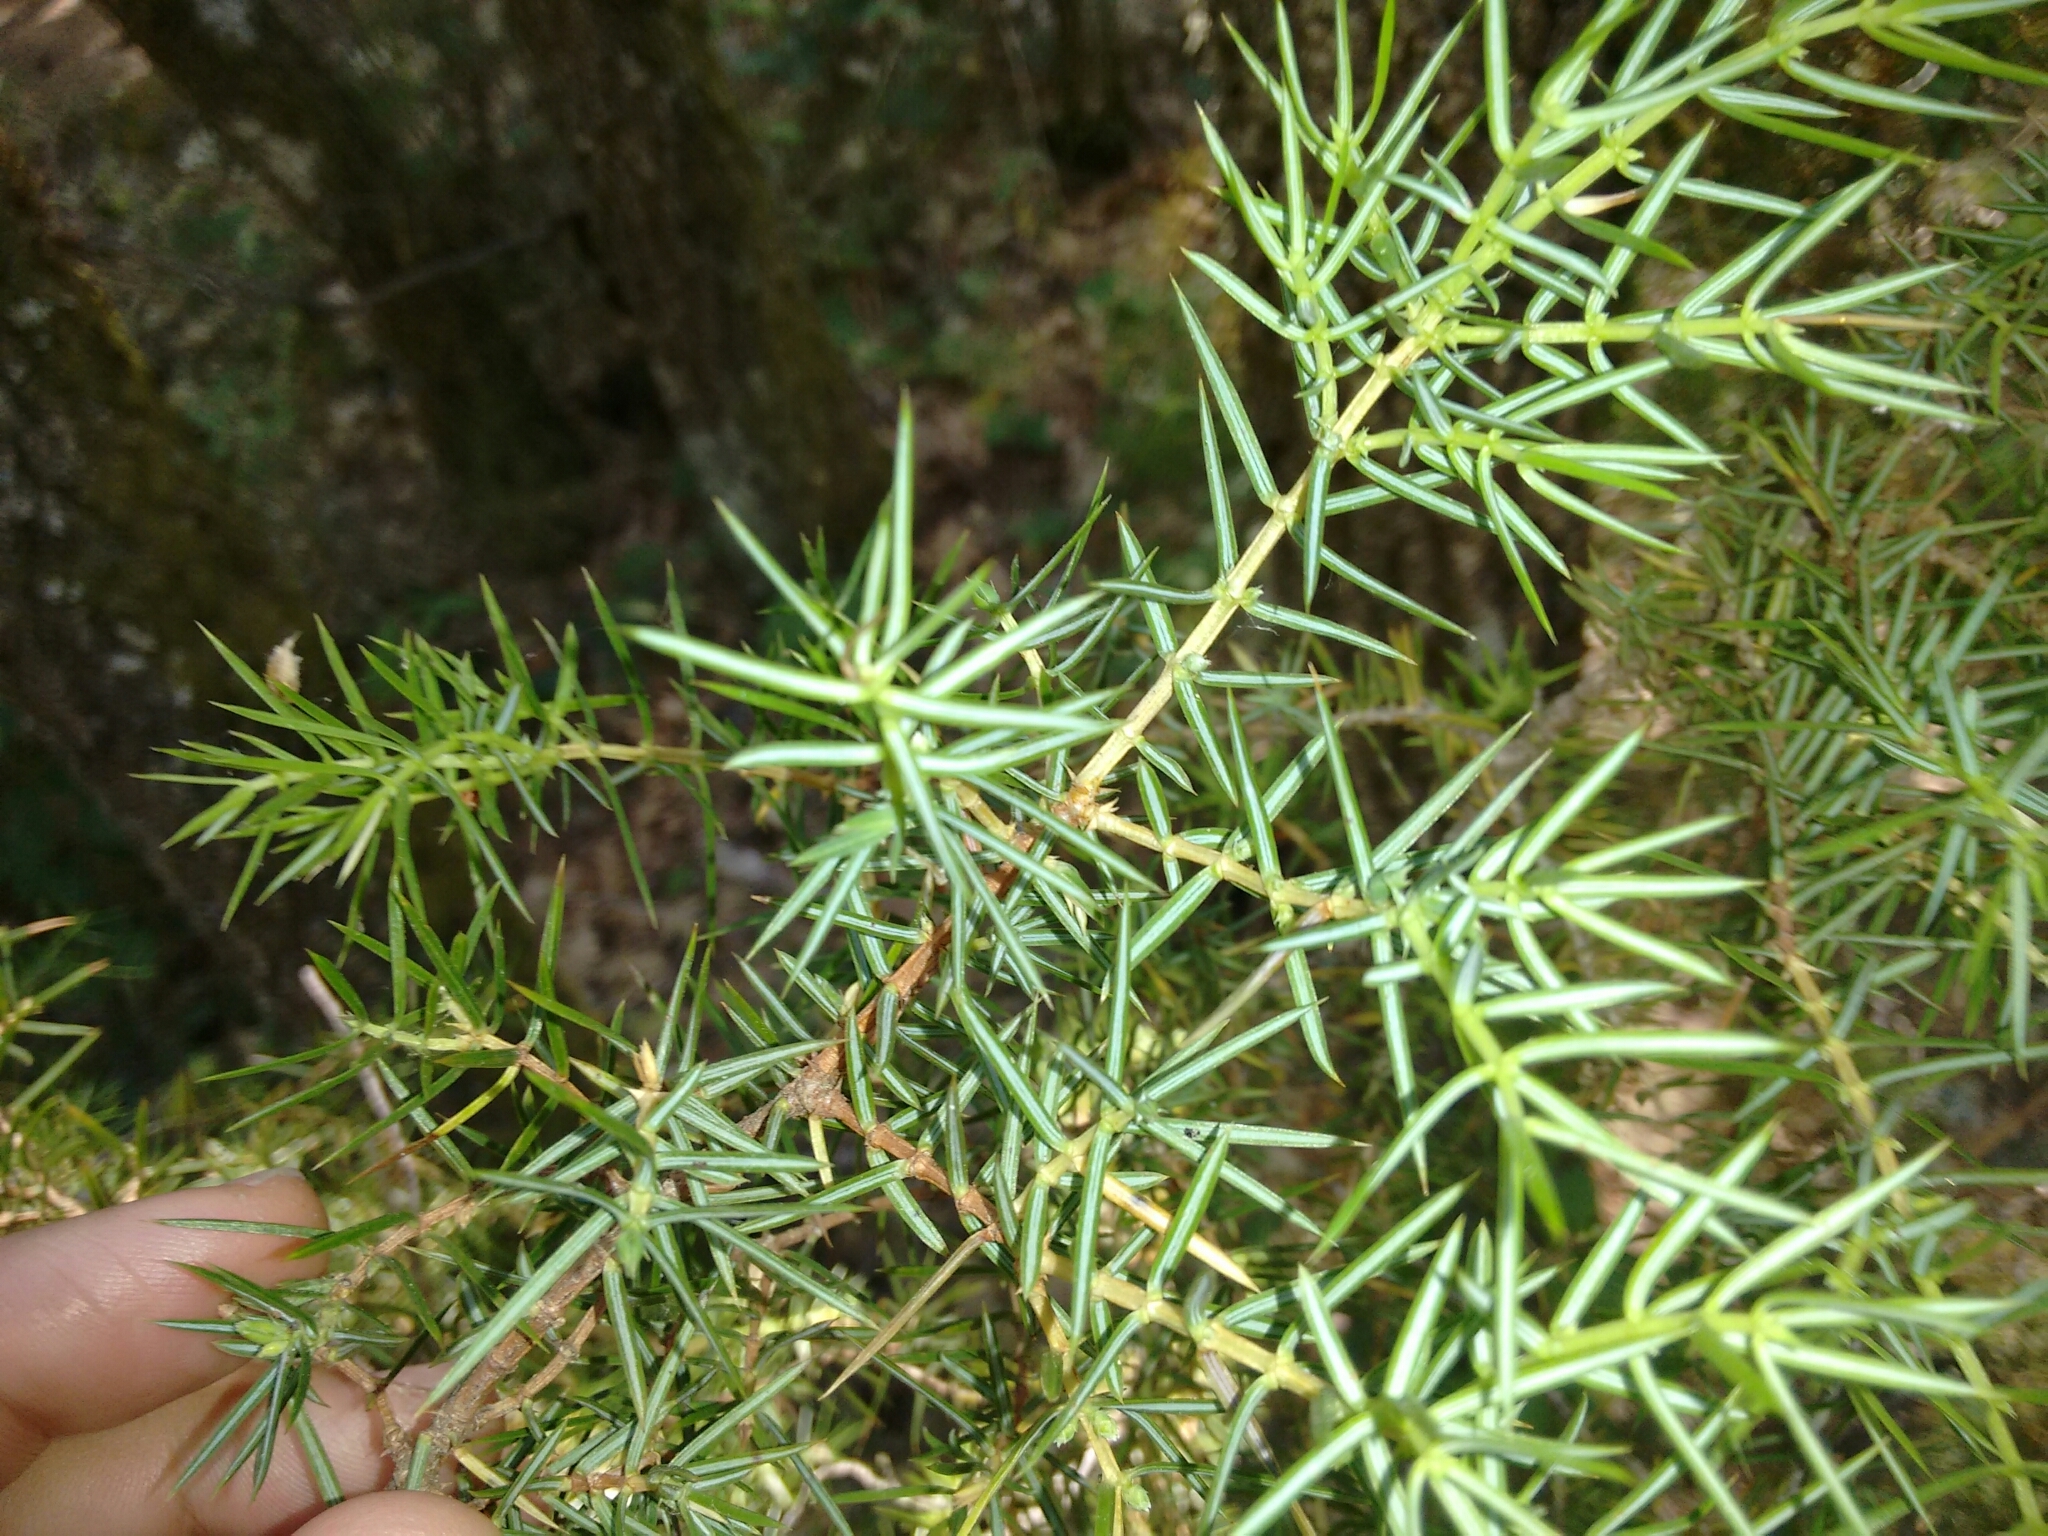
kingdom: Plantae
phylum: Tracheophyta
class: Pinopsida
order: Pinales
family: Cupressaceae
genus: Juniperus
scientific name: Juniperus communis
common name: Common juniper
